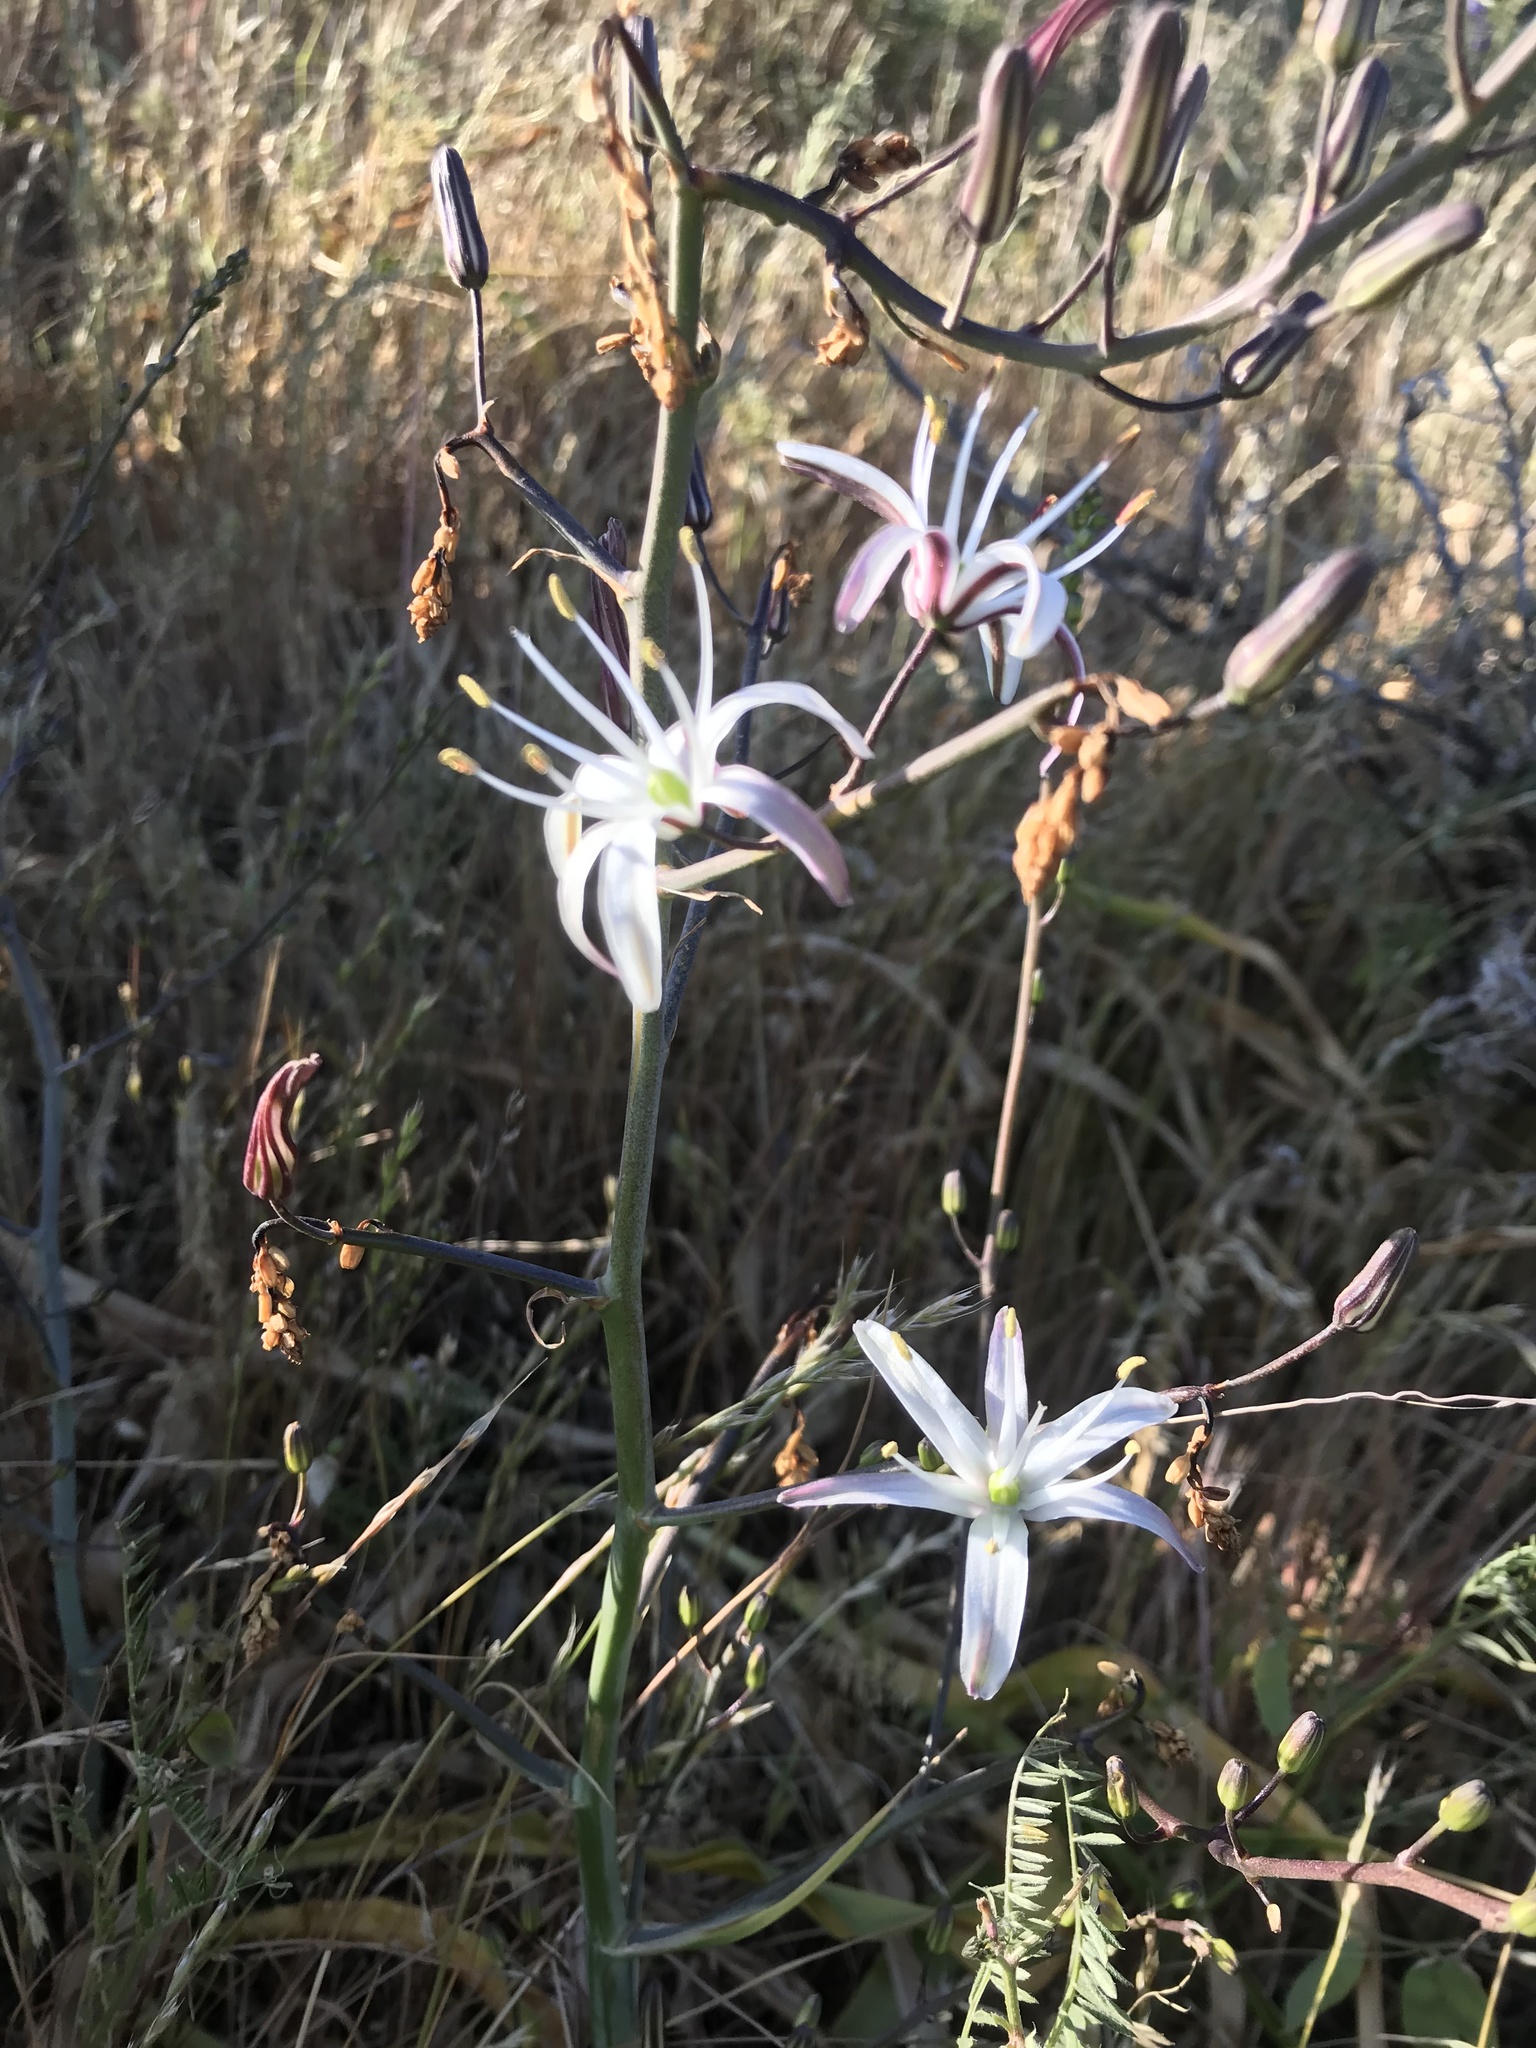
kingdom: Plantae
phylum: Tracheophyta
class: Liliopsida
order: Asparagales
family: Asparagaceae
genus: Chlorogalum
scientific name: Chlorogalum pomeridianum
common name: Amole
